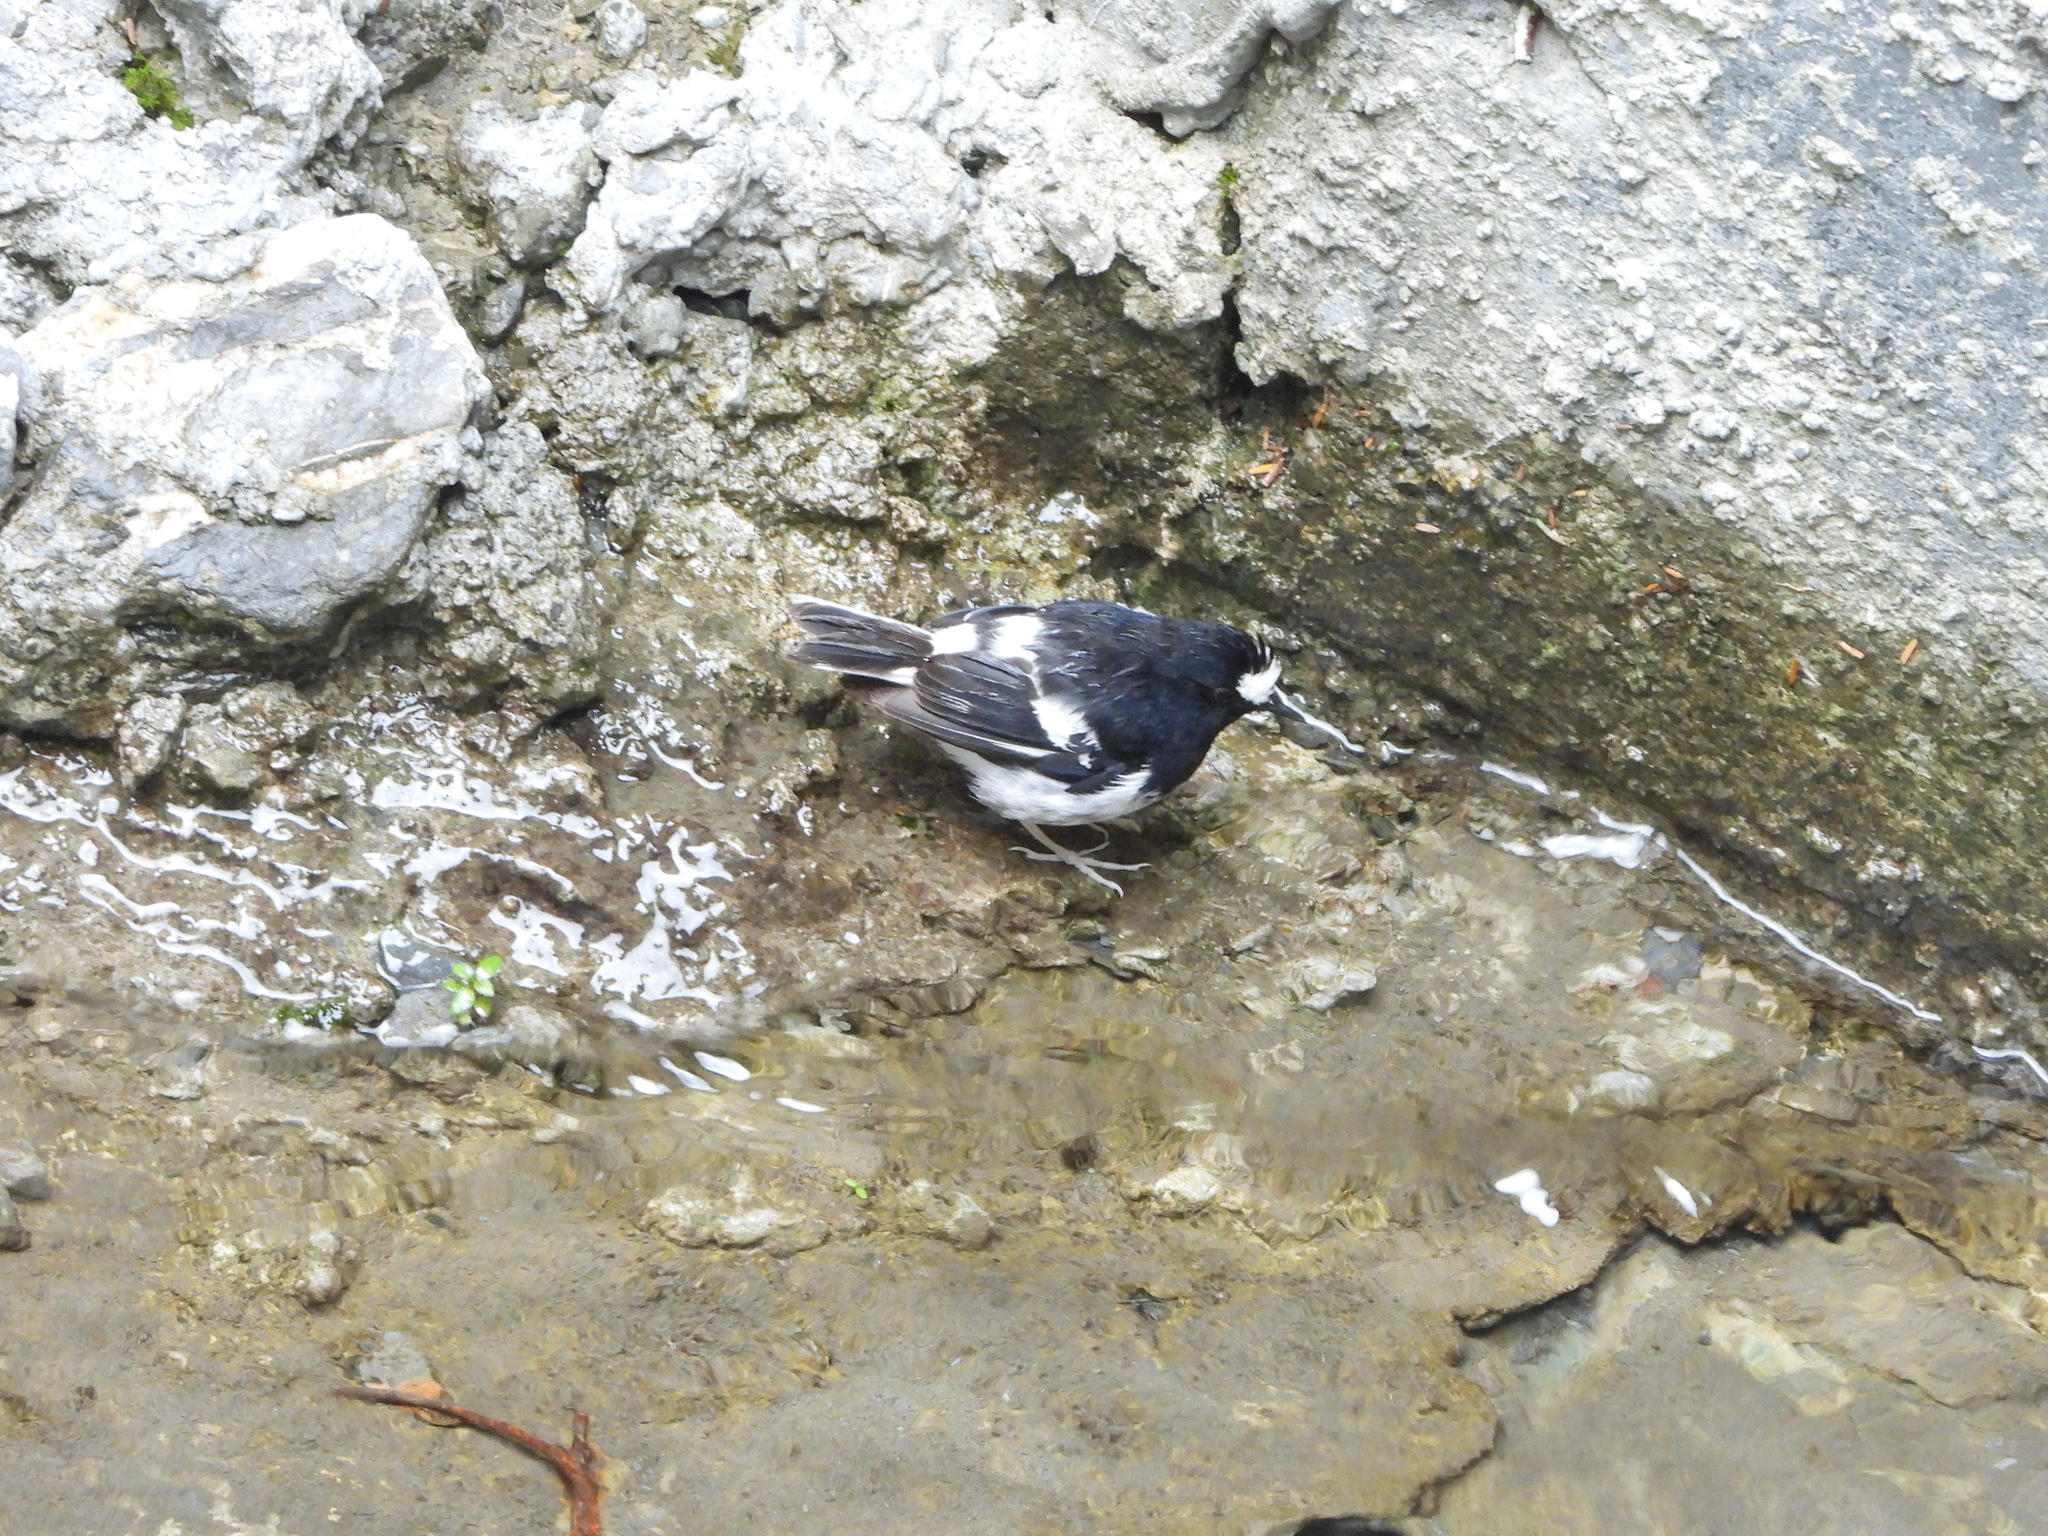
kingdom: Animalia
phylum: Chordata
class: Aves
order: Passeriformes
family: Muscicapidae
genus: Enicurus
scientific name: Enicurus scouleri
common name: Little forktail
